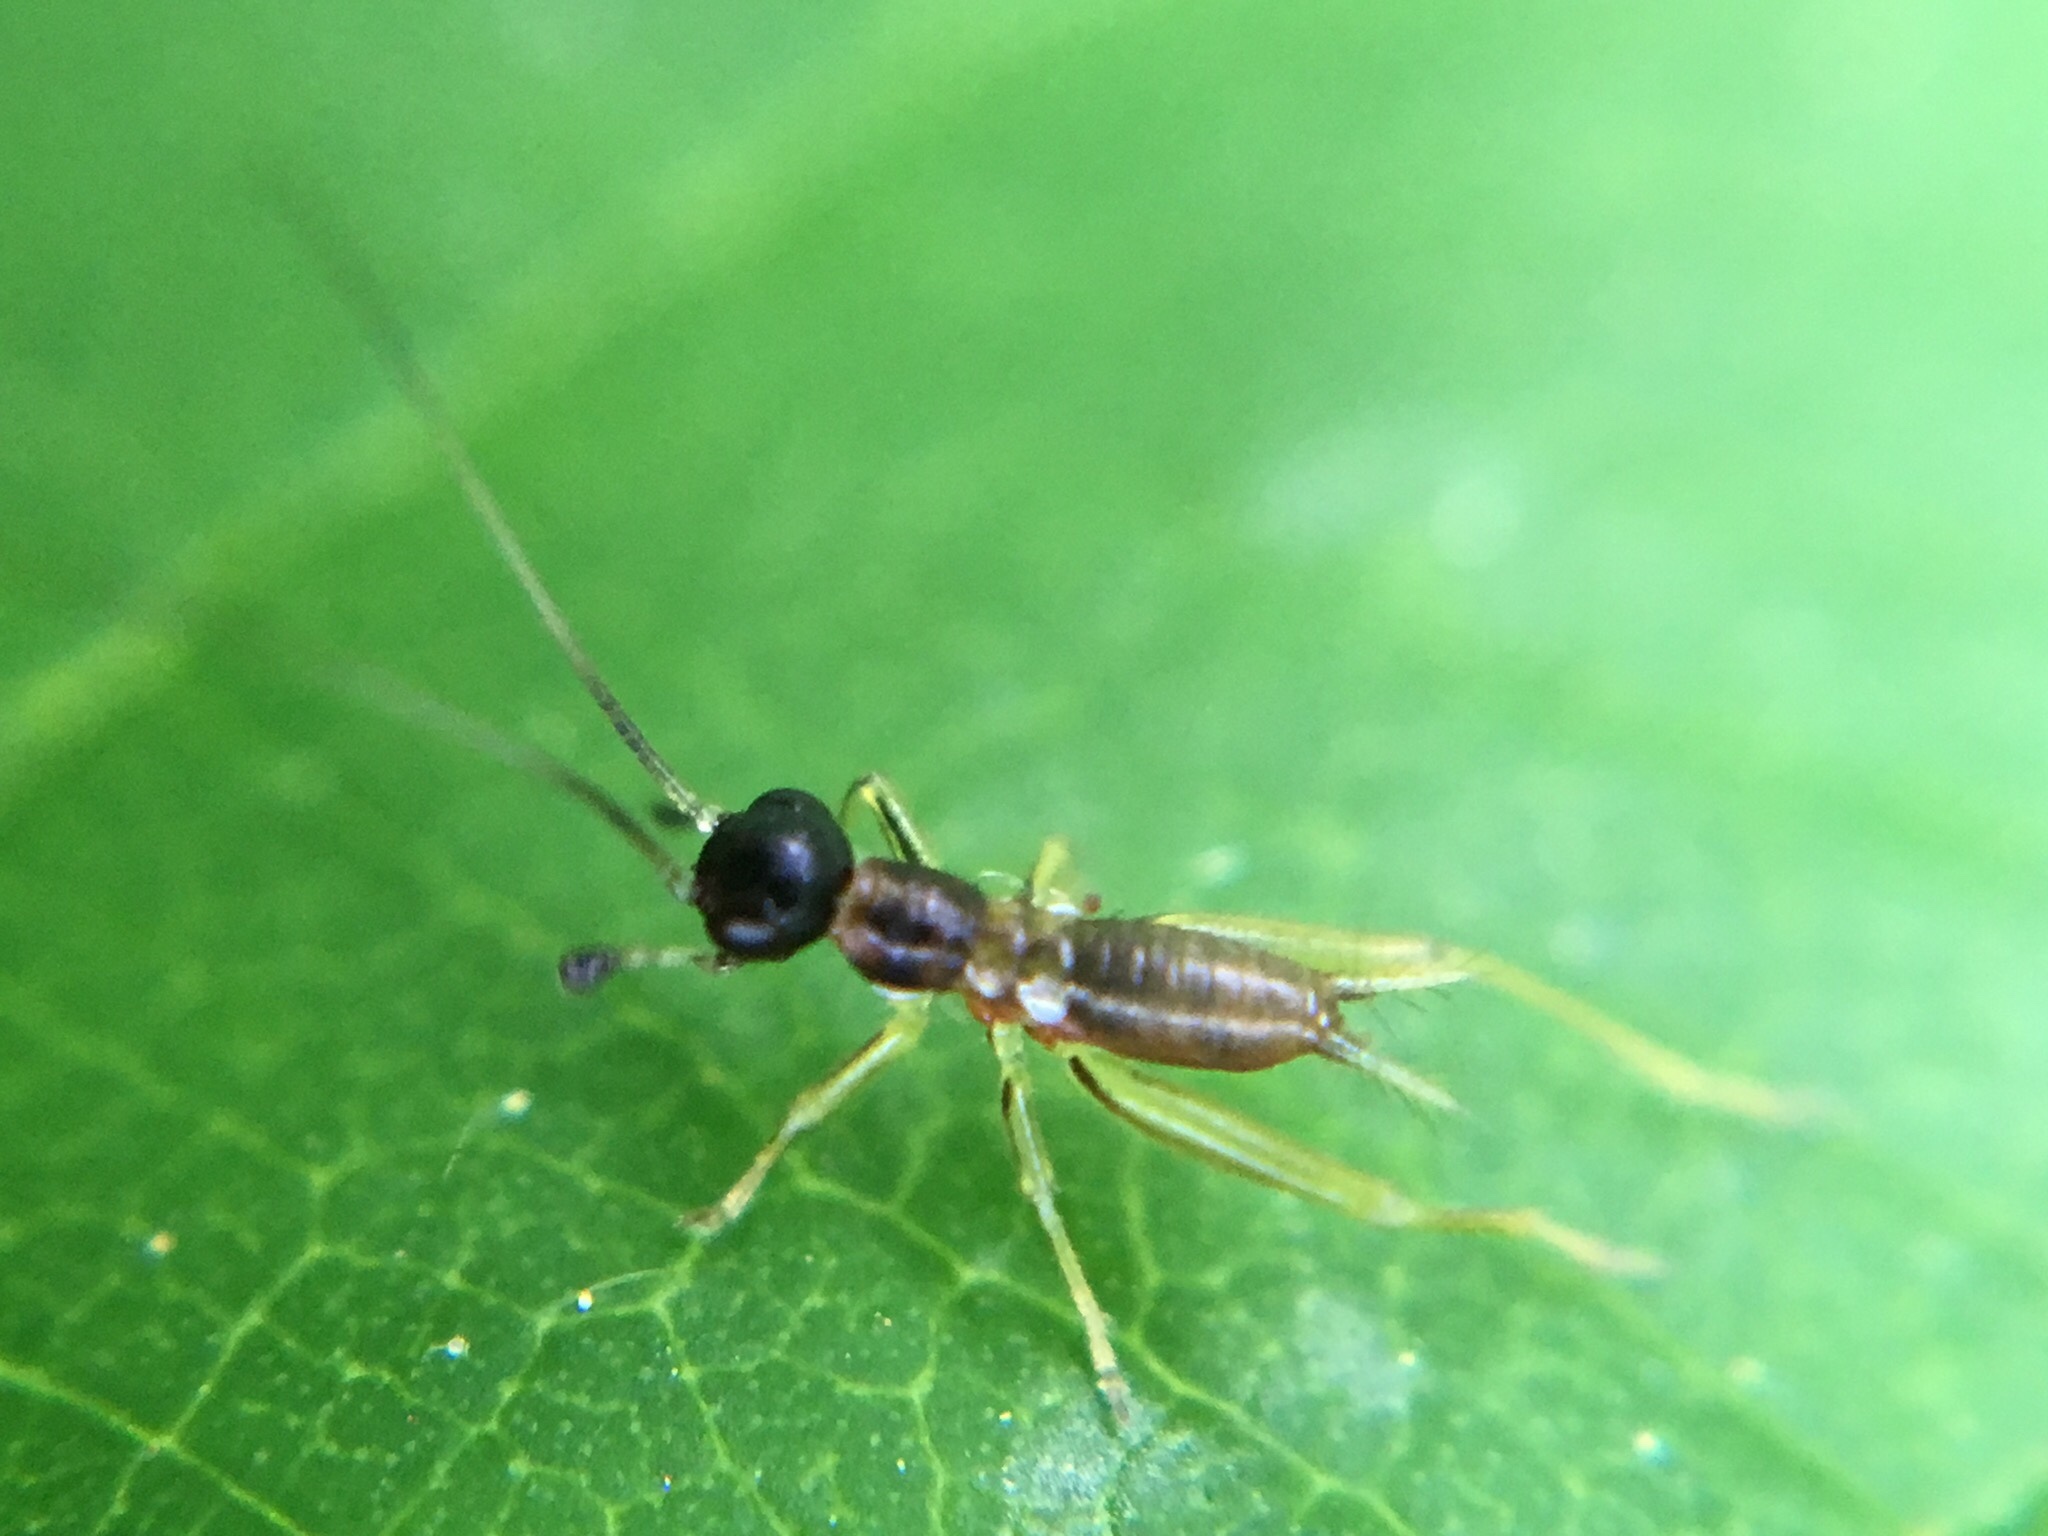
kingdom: Animalia
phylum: Arthropoda
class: Insecta
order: Orthoptera
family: Trigonidiidae
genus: Phyllopalpus
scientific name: Phyllopalpus pulchellus
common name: Handsome trig
